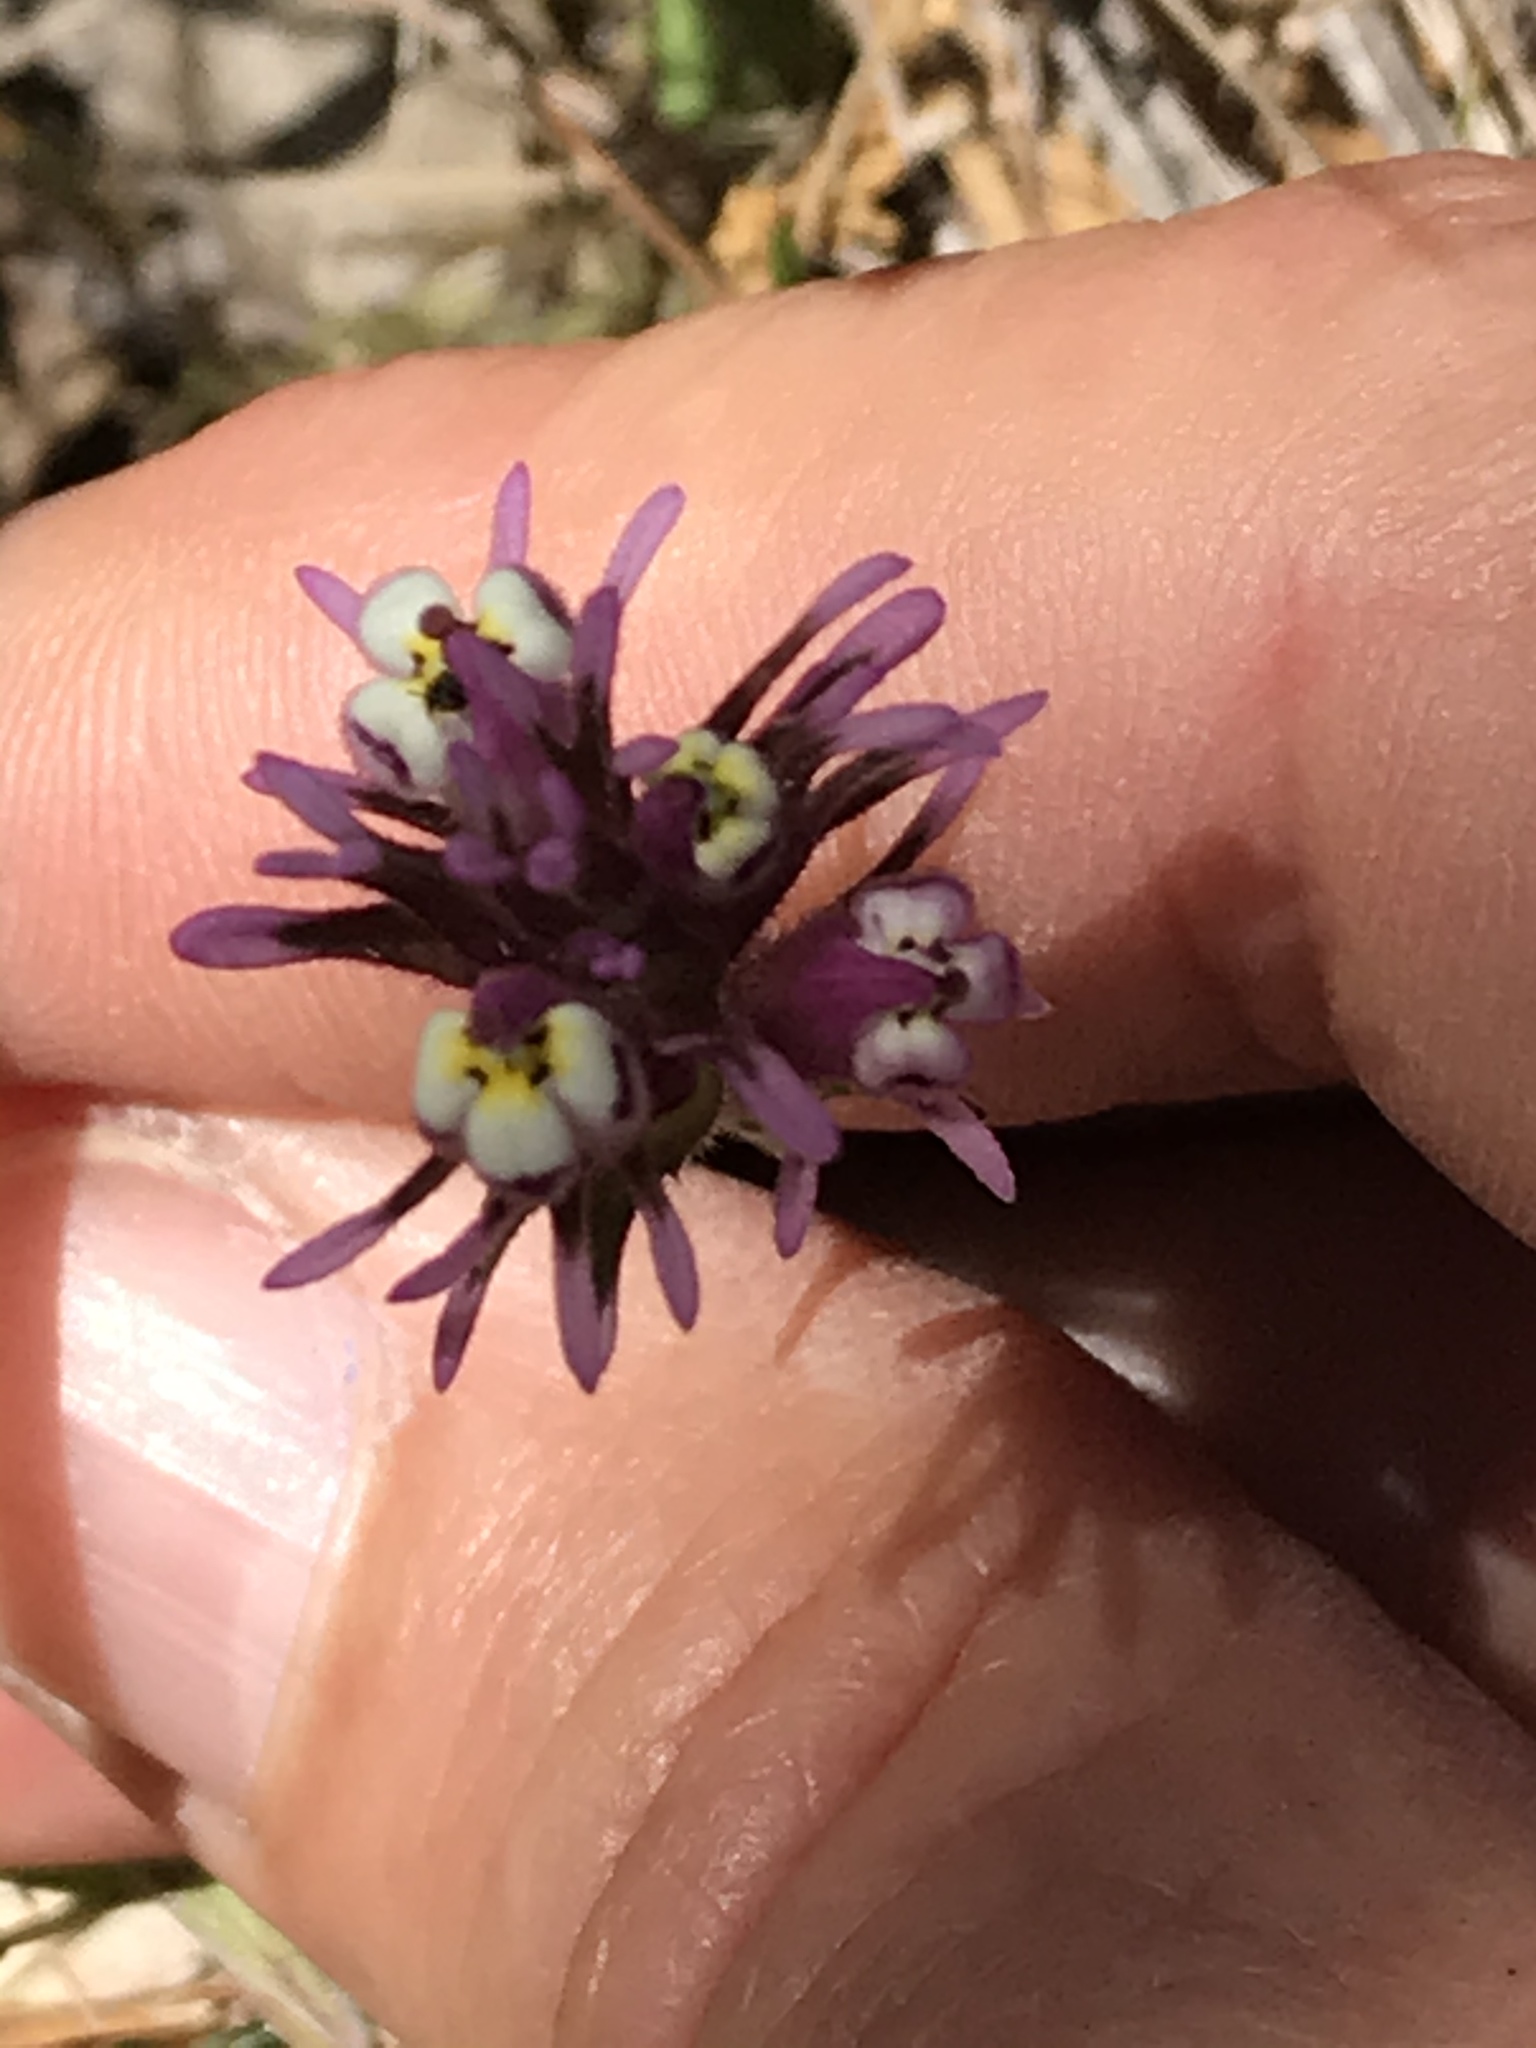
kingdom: Plantae
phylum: Tracheophyta
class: Magnoliopsida
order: Lamiales
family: Orobanchaceae
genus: Castilleja
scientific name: Castilleja densiflora
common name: Dense-flower indian paintbrush
